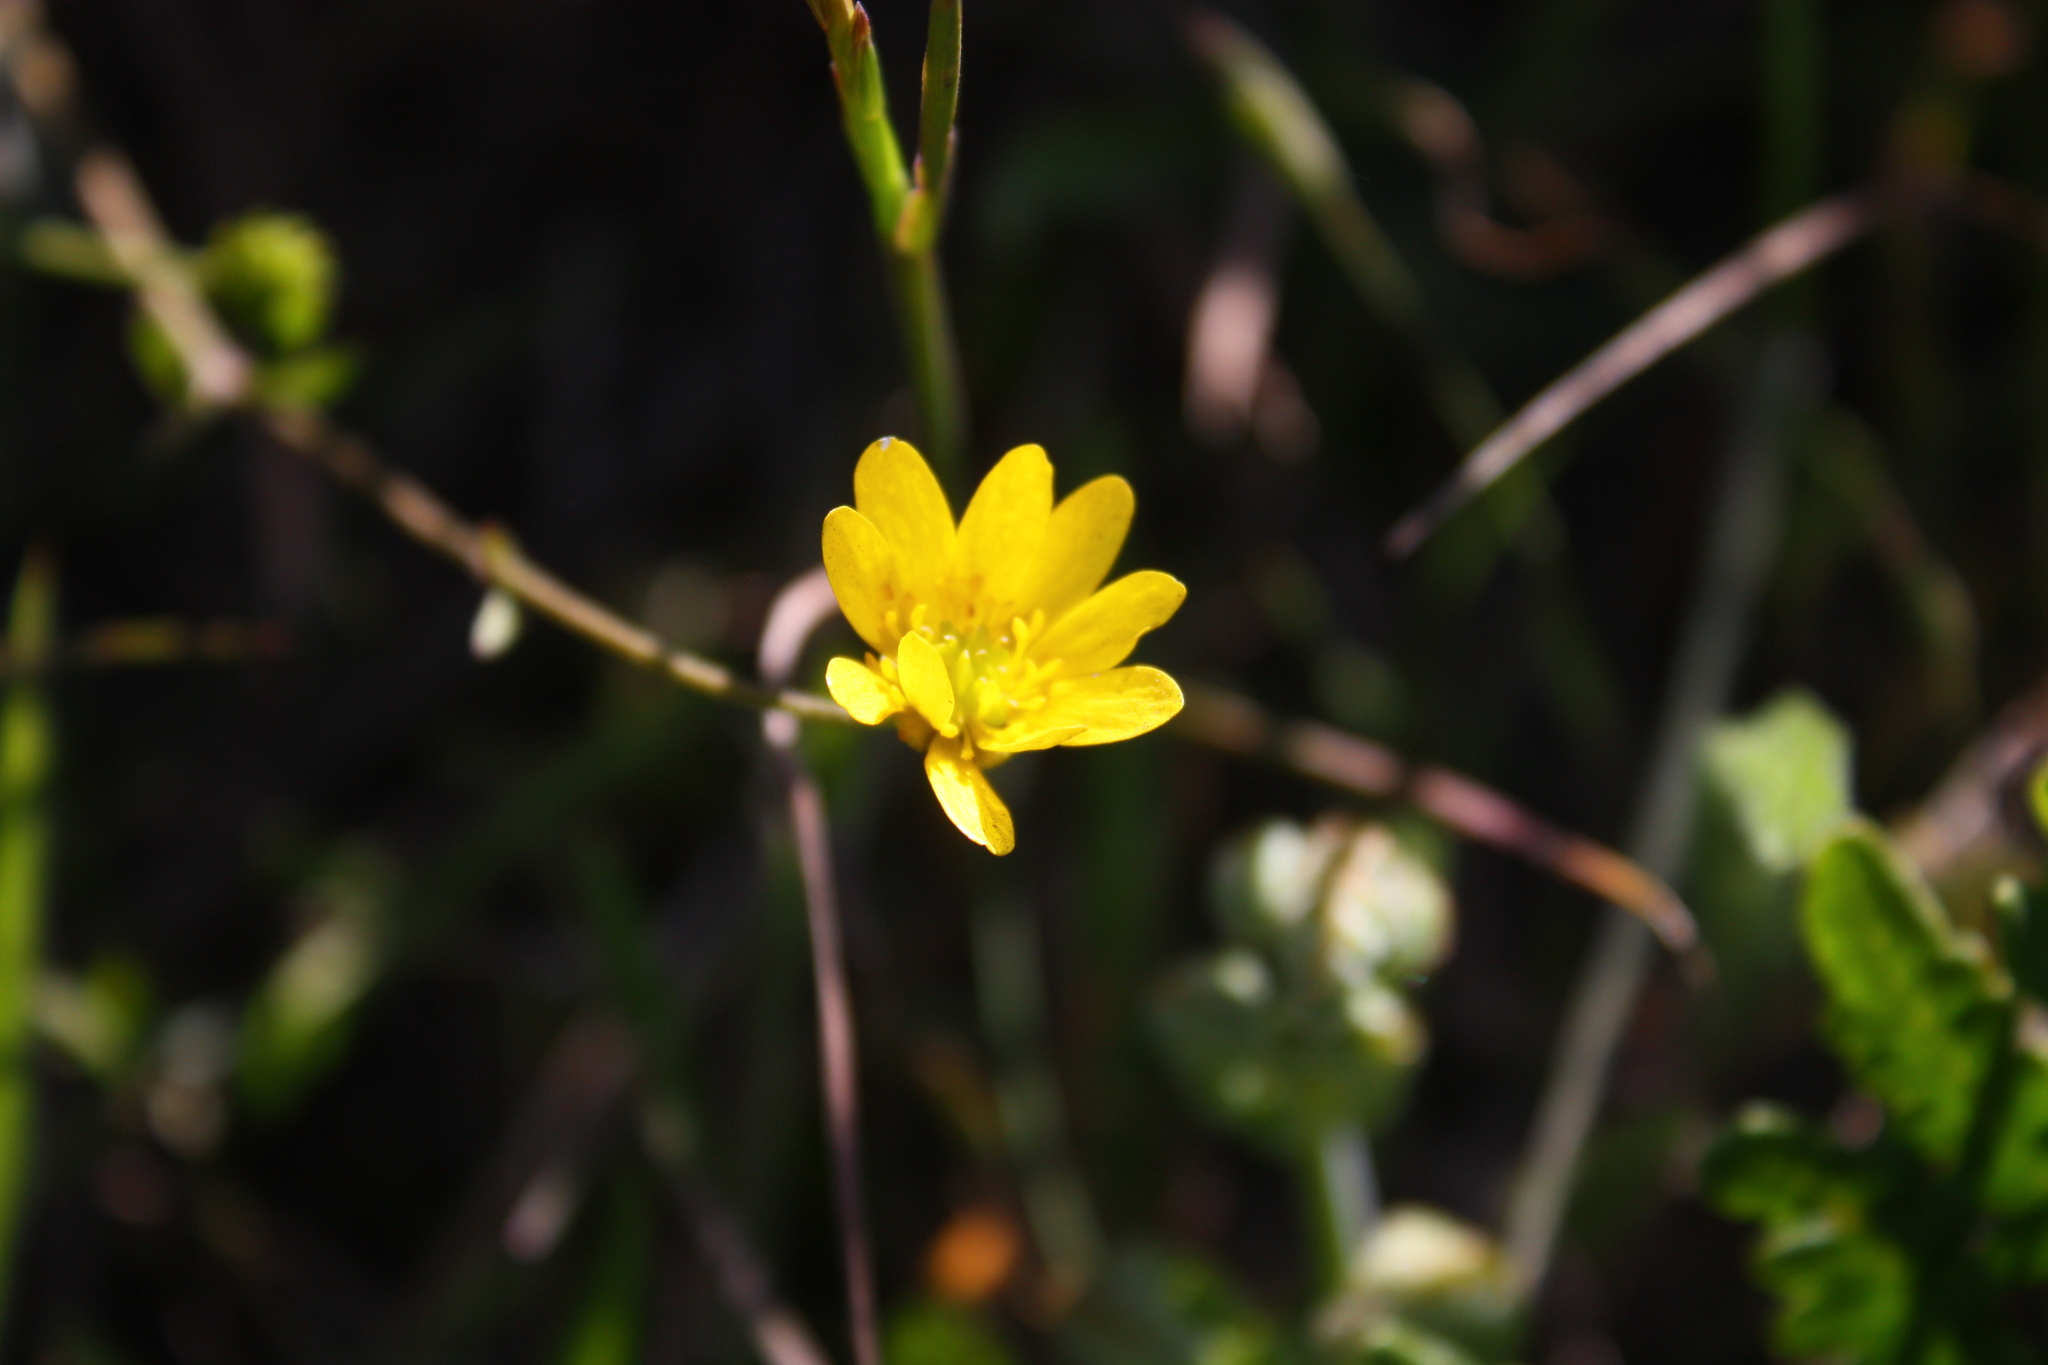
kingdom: Plantae
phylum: Tracheophyta
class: Magnoliopsida
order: Ranunculales
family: Ranunculaceae
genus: Ranunculus
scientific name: Ranunculus californicus
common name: California buttercup
